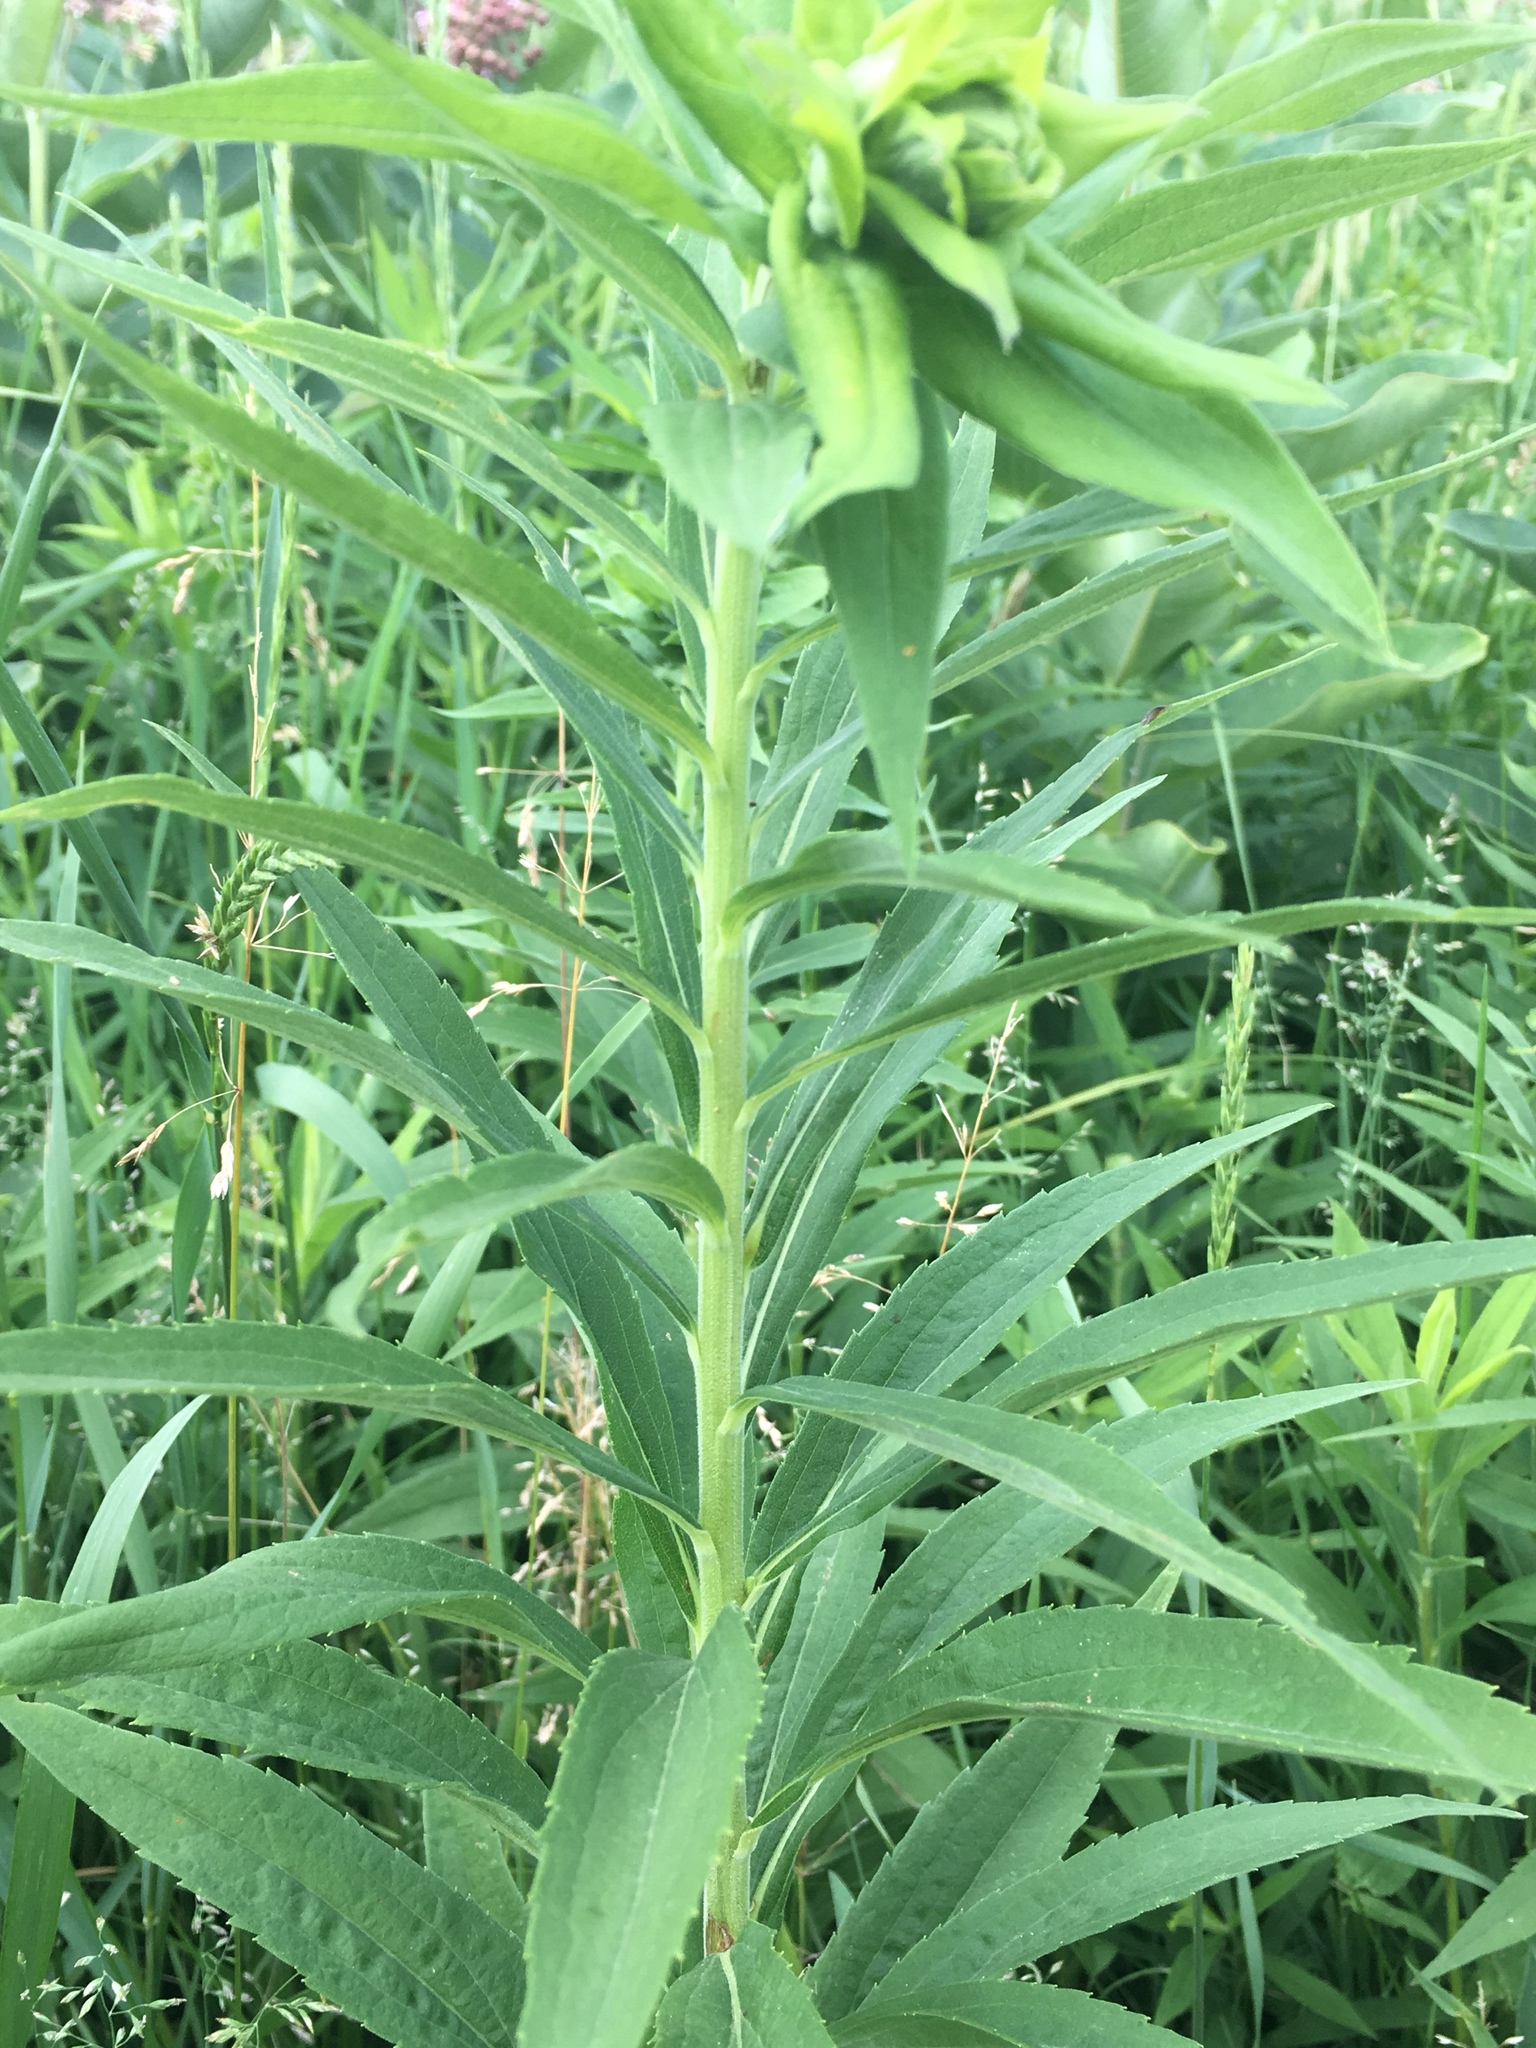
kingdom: Plantae
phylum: Tracheophyta
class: Magnoliopsida
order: Asterales
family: Asteraceae
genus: Solidago
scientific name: Solidago altissima
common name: Late goldenrod
